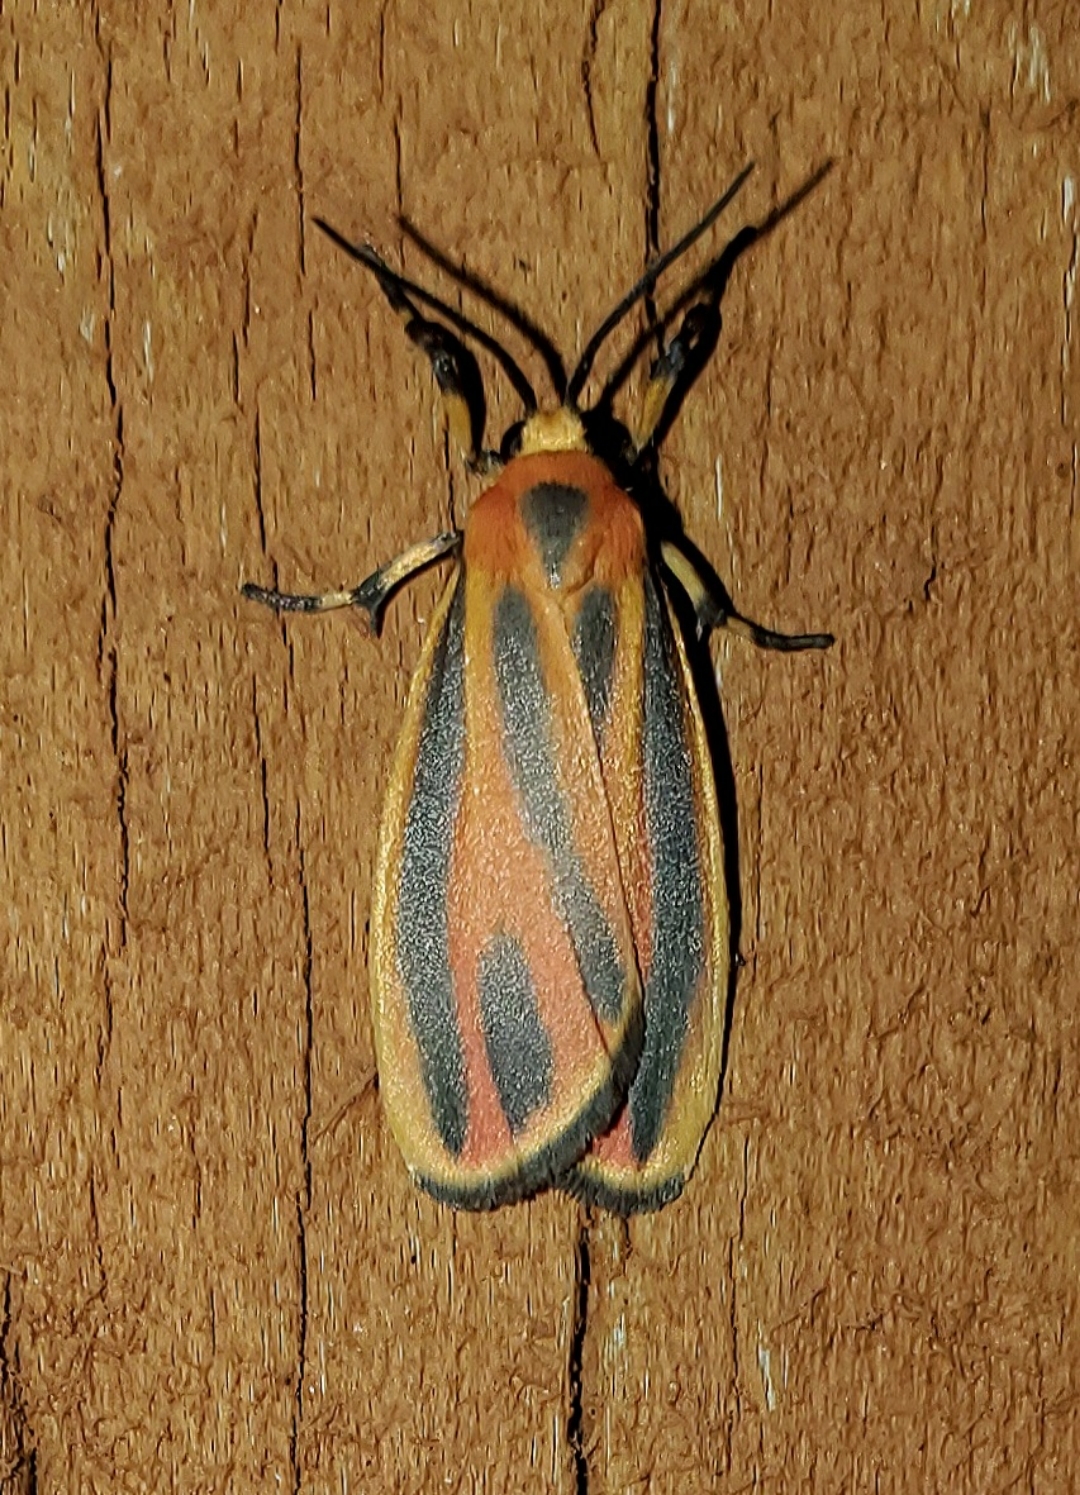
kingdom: Animalia
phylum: Arthropoda
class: Insecta
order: Lepidoptera
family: Erebidae
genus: Hypoprepia
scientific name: Hypoprepia fucosa
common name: Painted lichen moth
